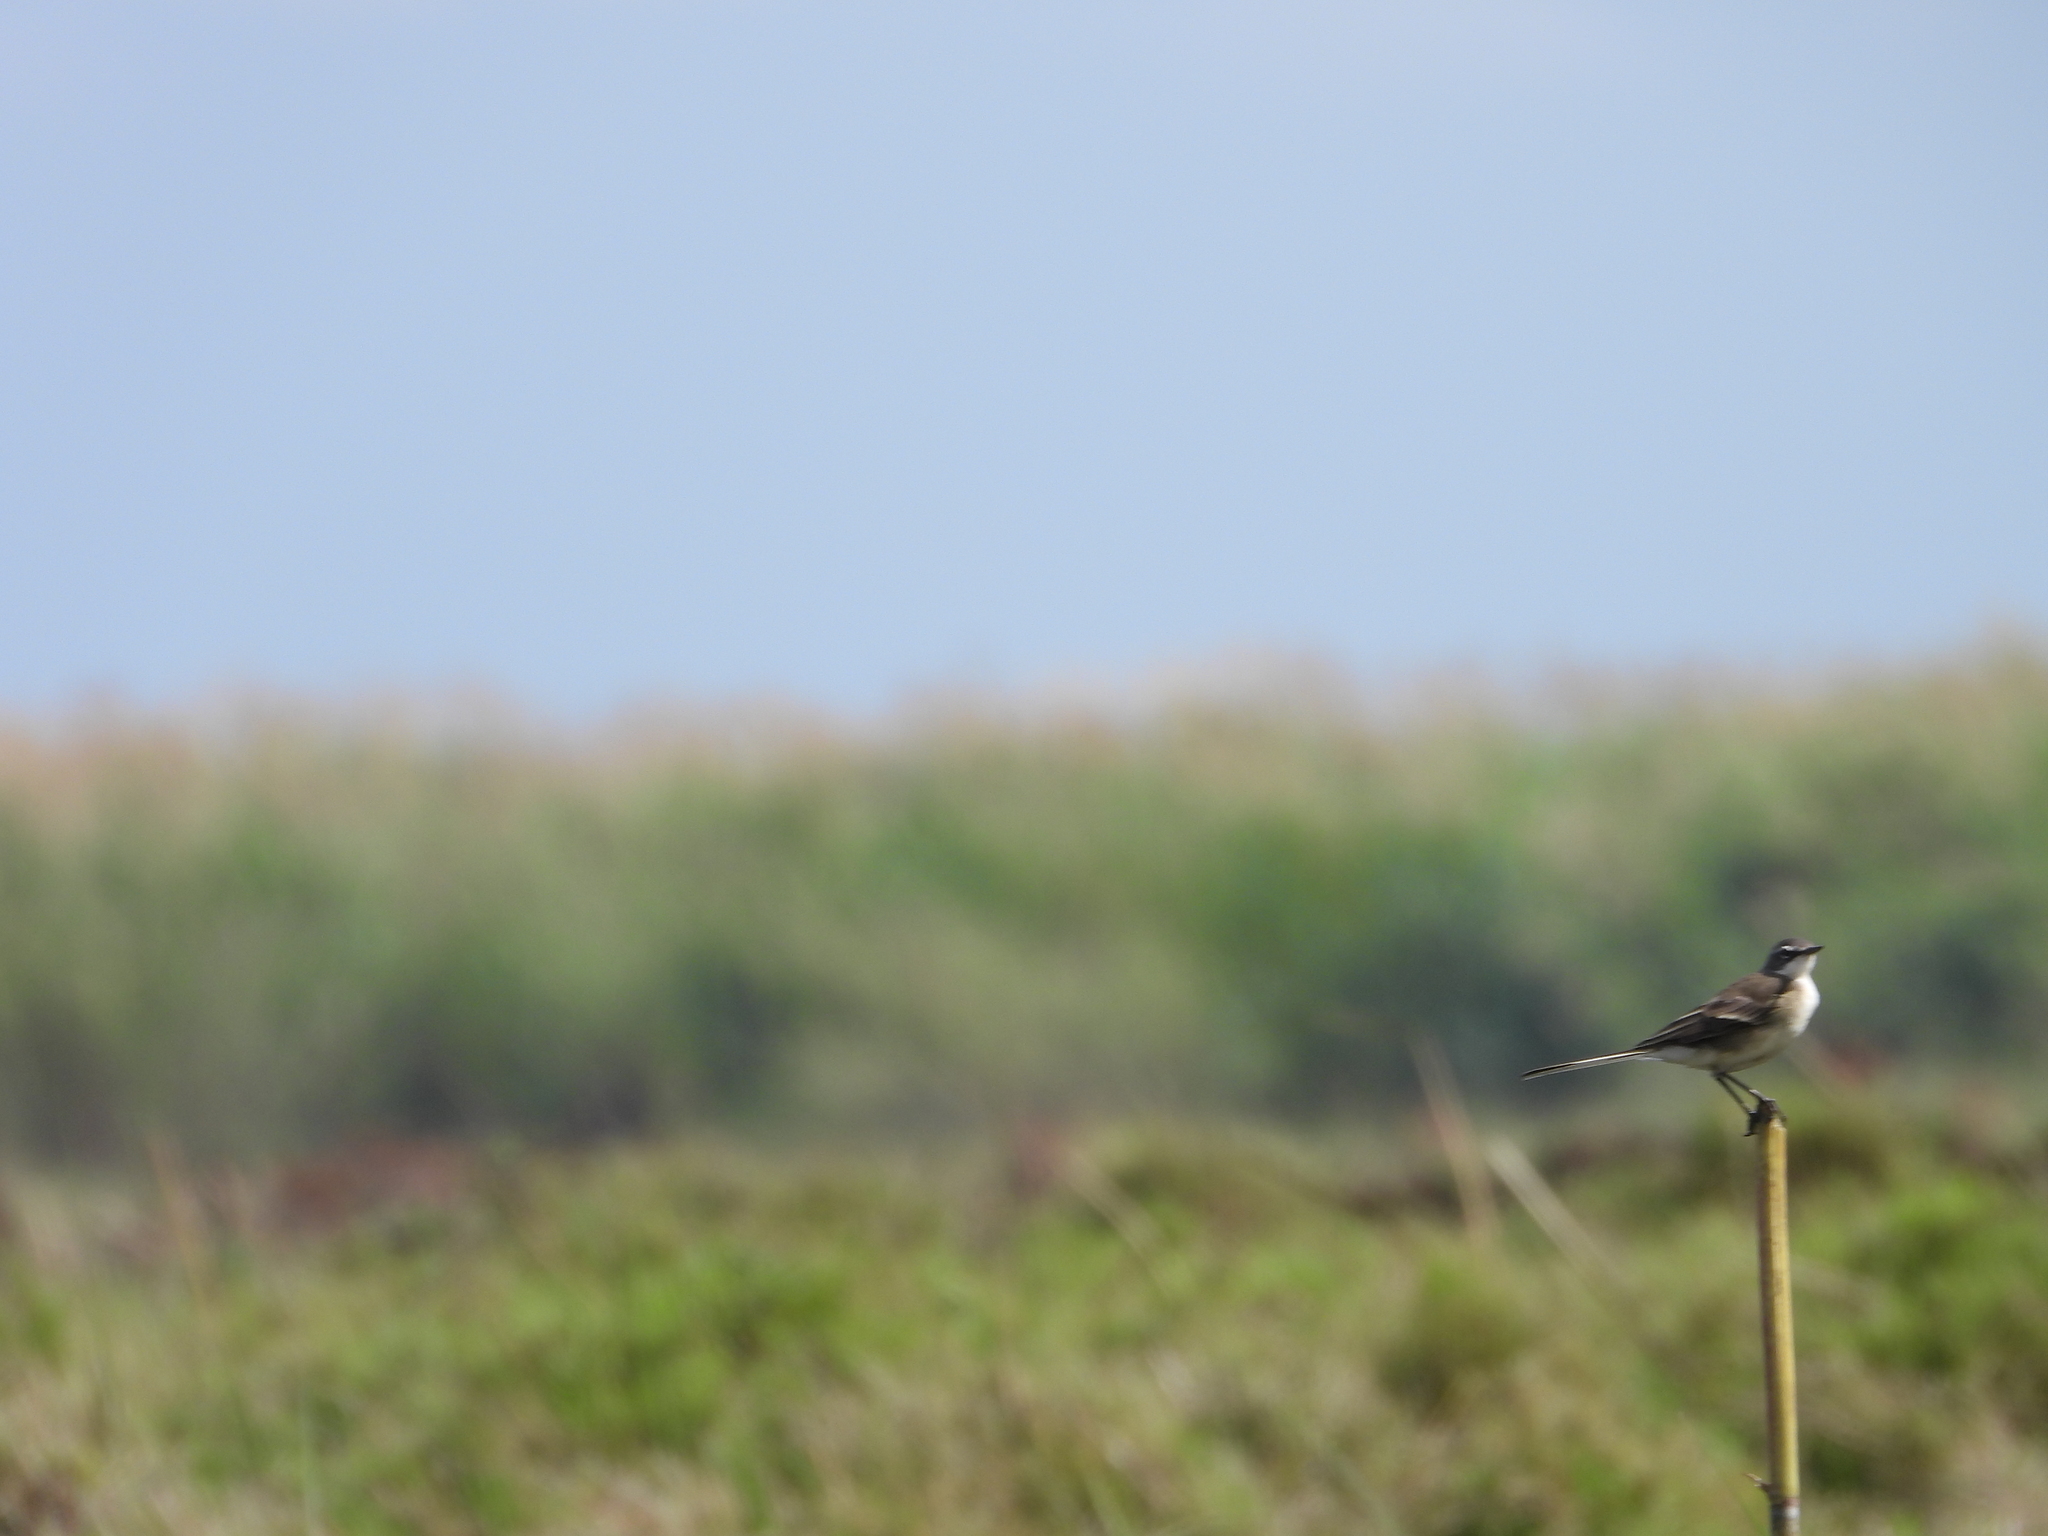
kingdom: Animalia
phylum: Chordata
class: Aves
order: Passeriformes
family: Motacillidae
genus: Motacilla
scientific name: Motacilla capensis
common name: Cape wagtail
